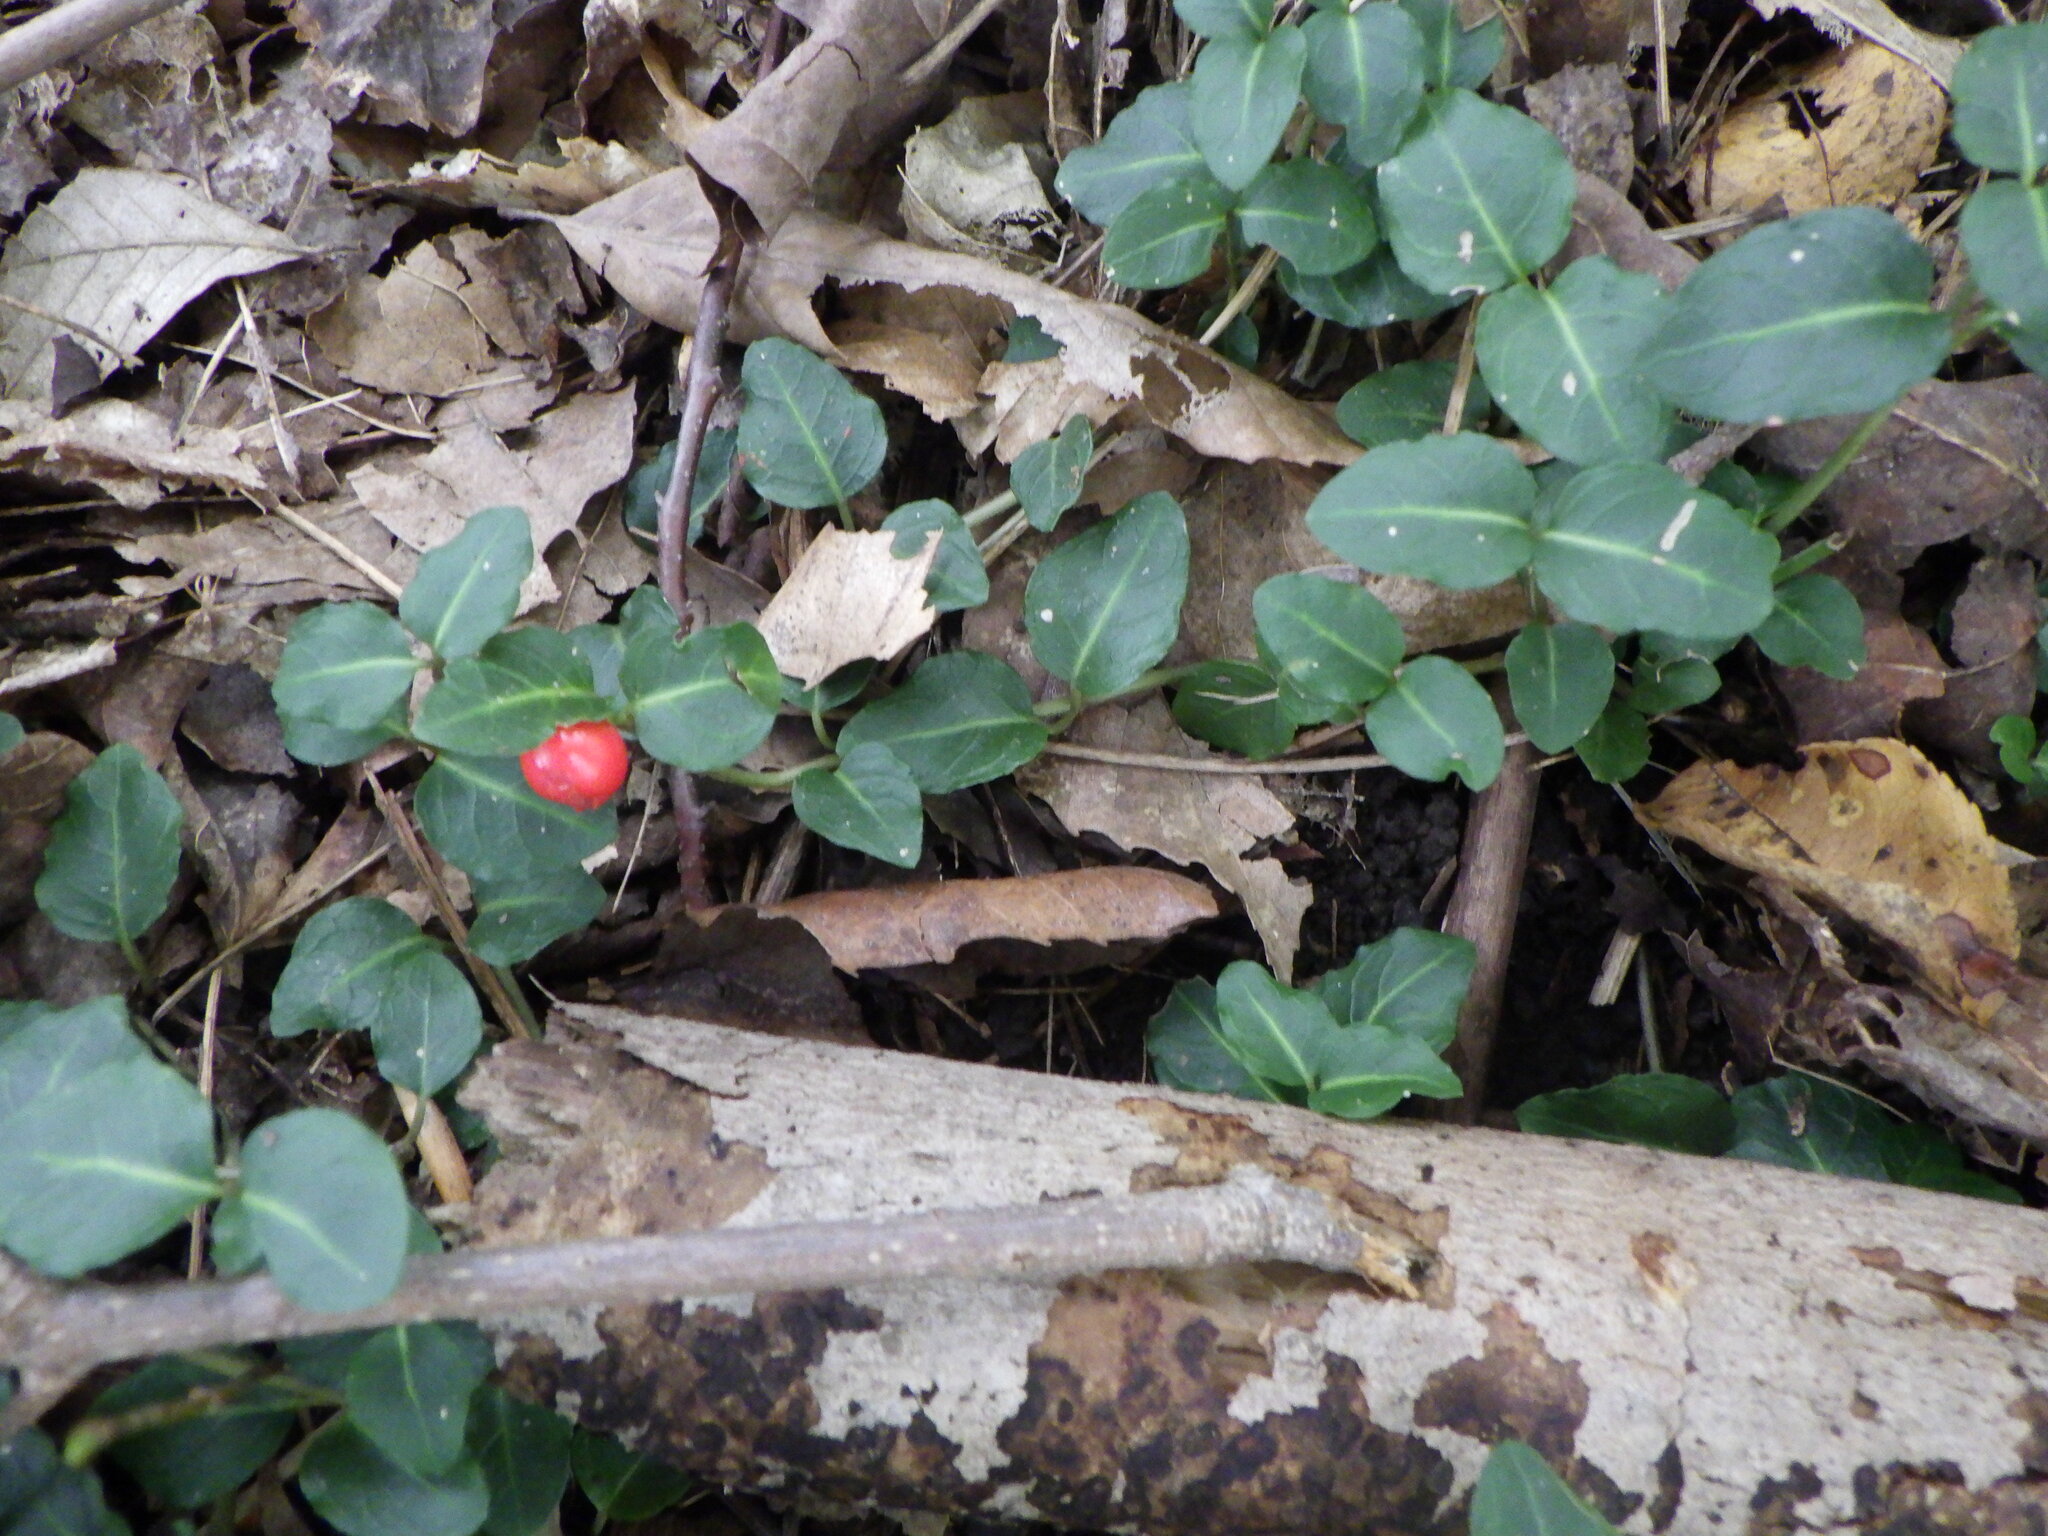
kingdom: Plantae
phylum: Tracheophyta
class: Magnoliopsida
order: Gentianales
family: Rubiaceae
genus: Mitchella
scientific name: Mitchella repens
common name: Partridge-berry
